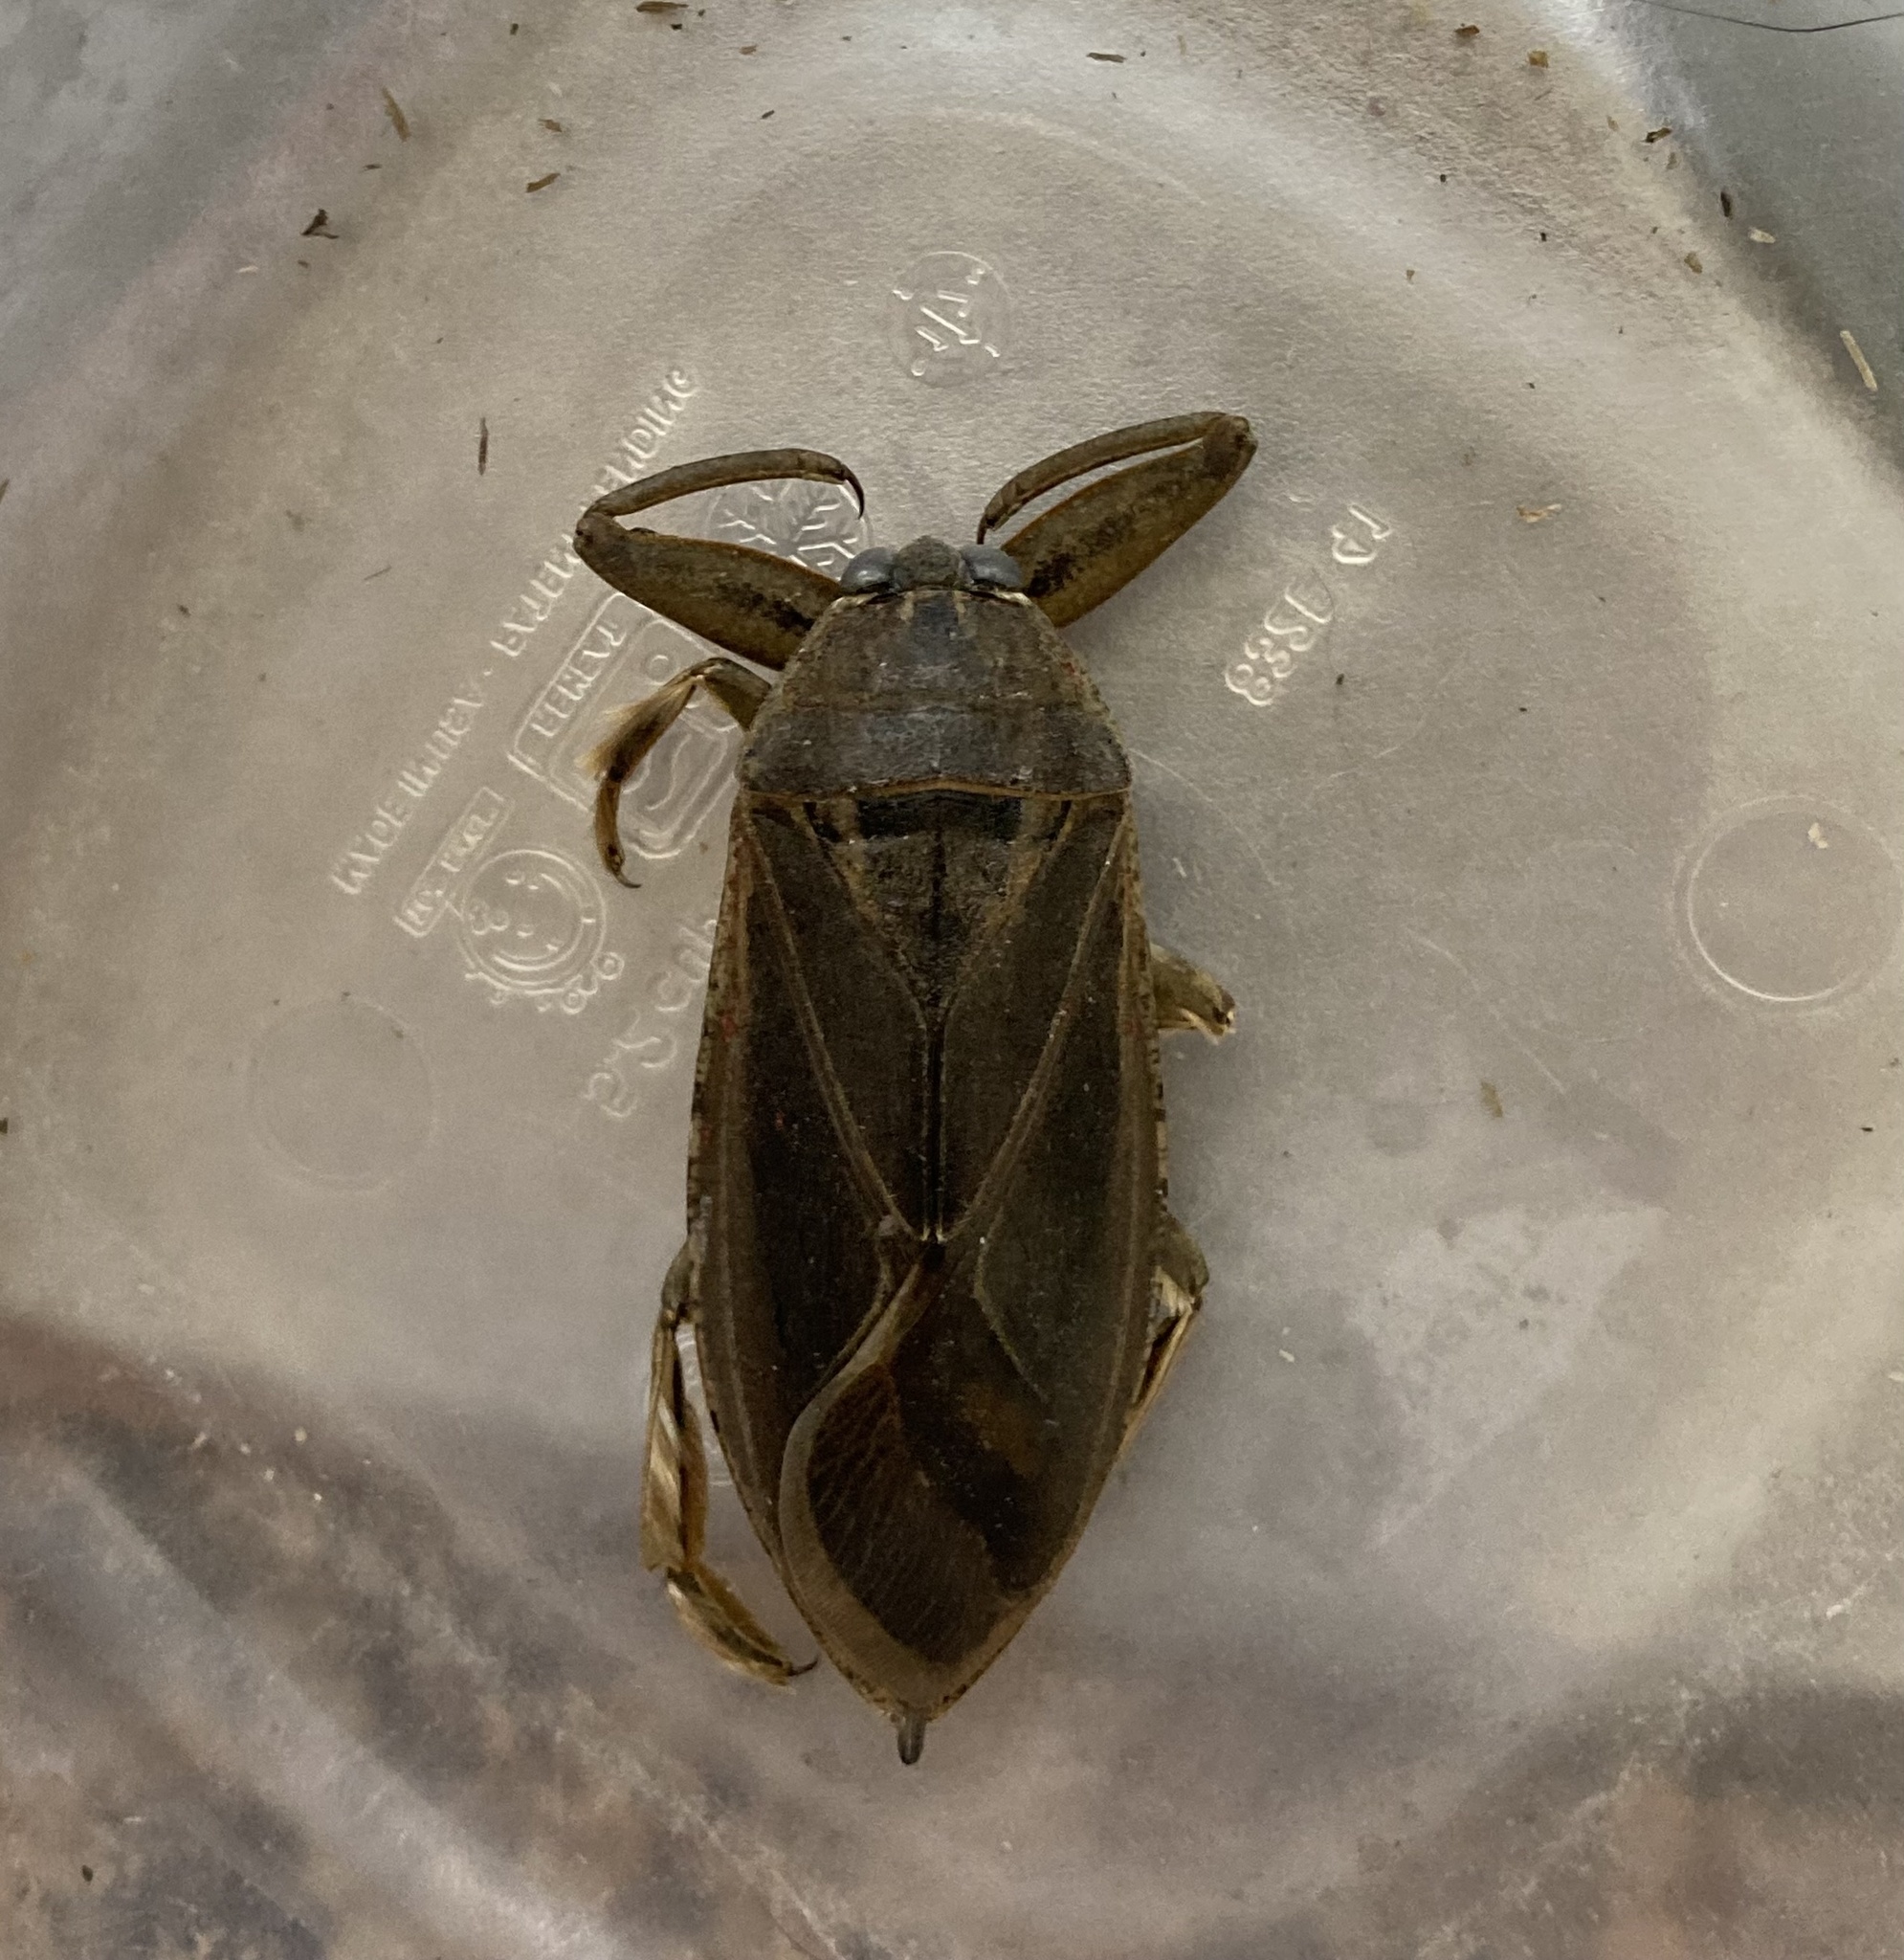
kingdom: Animalia
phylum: Arthropoda
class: Insecta
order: Hemiptera
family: Belostomatidae
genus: Lethocerus
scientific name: Lethocerus americanus
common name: Giant water bug
